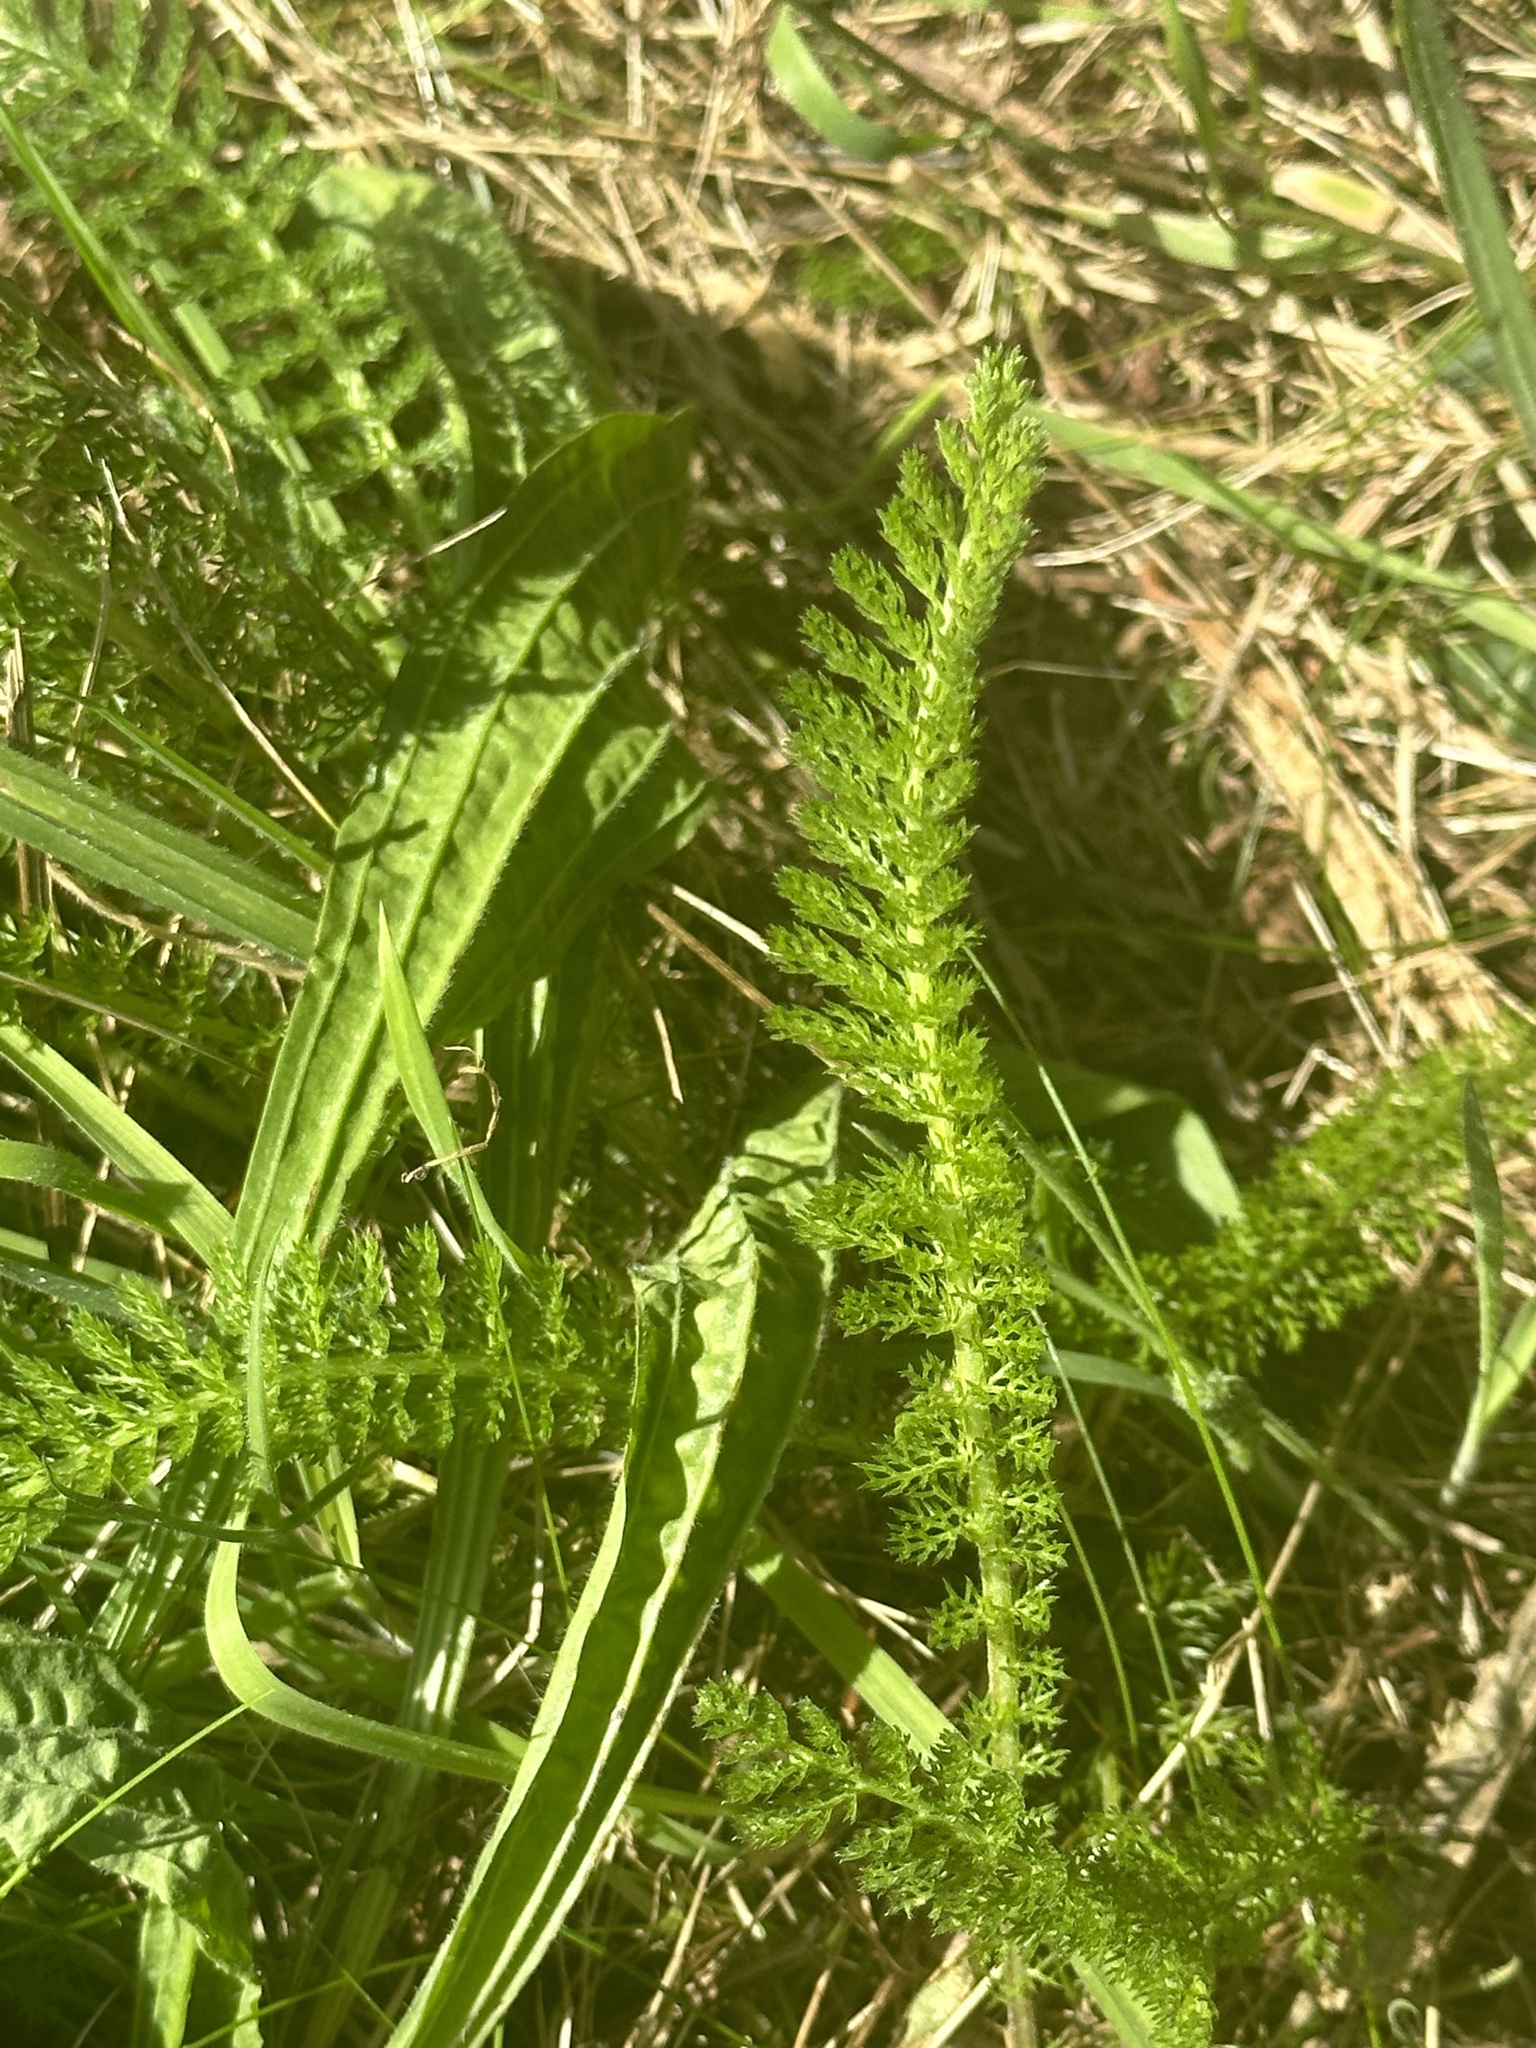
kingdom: Plantae
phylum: Tracheophyta
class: Magnoliopsida
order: Asterales
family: Asteraceae
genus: Achillea
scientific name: Achillea millefolium
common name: Yarrow
